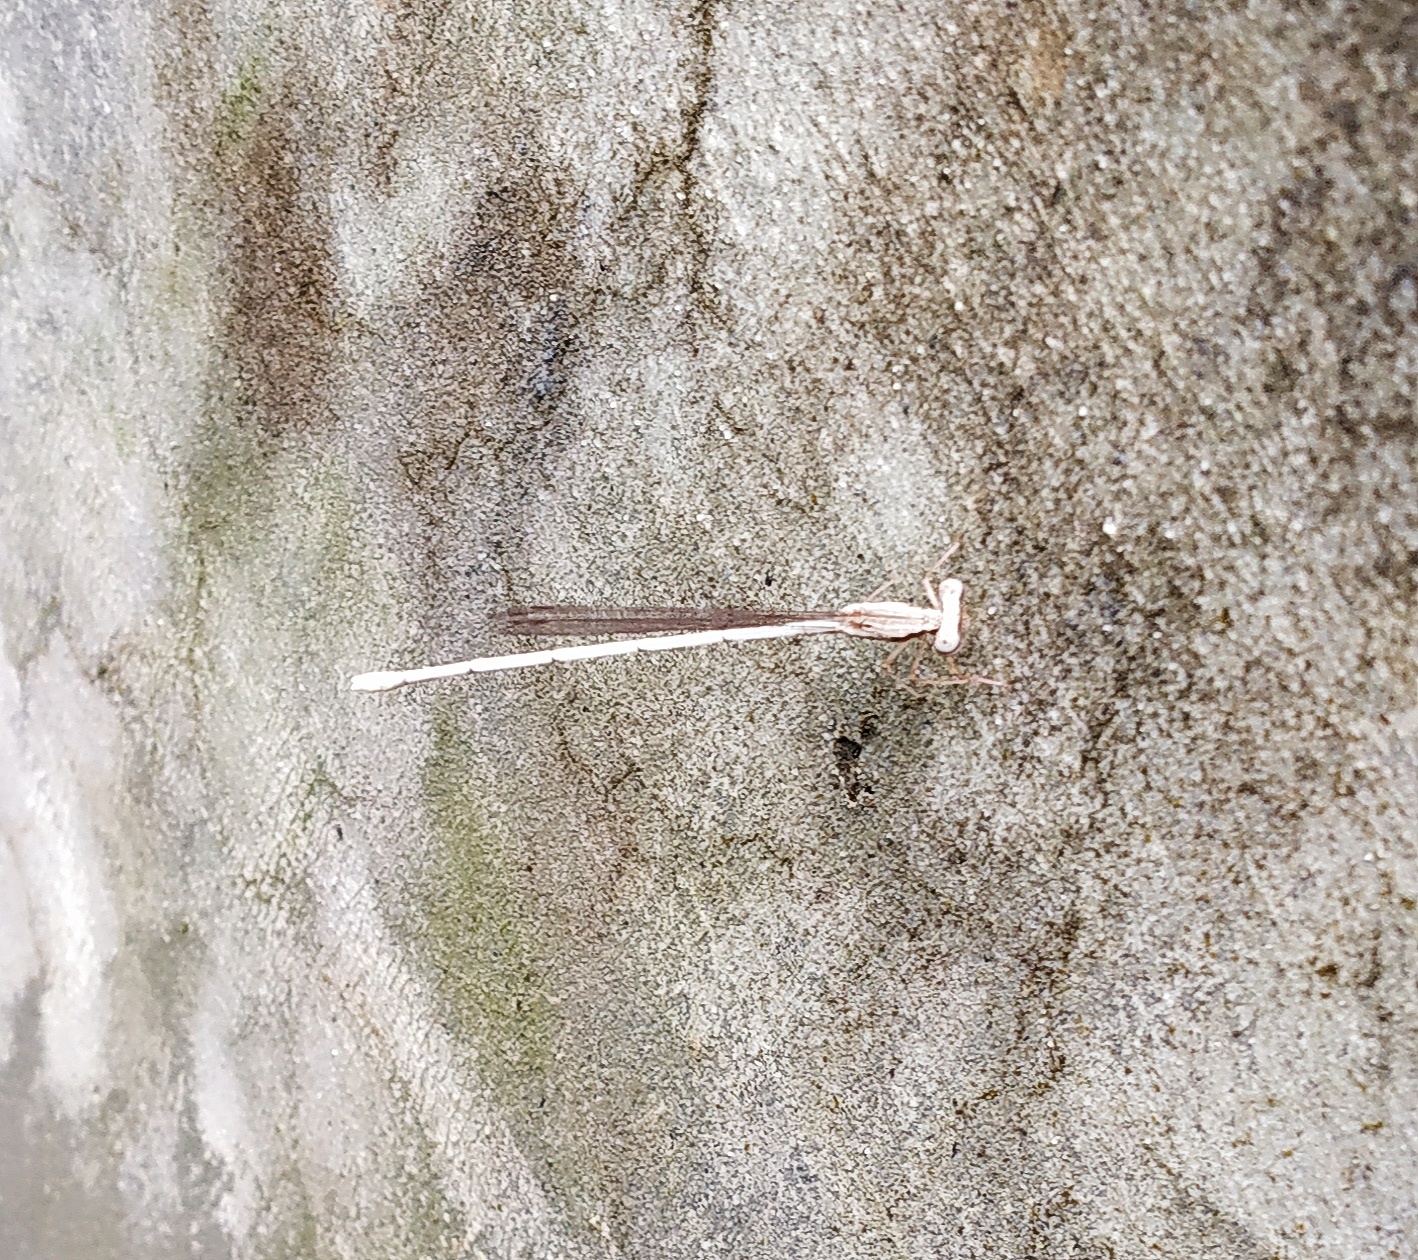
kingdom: Animalia
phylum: Arthropoda
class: Insecta
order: Odonata
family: Platycnemididae
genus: Copera
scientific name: Copera marginipes
